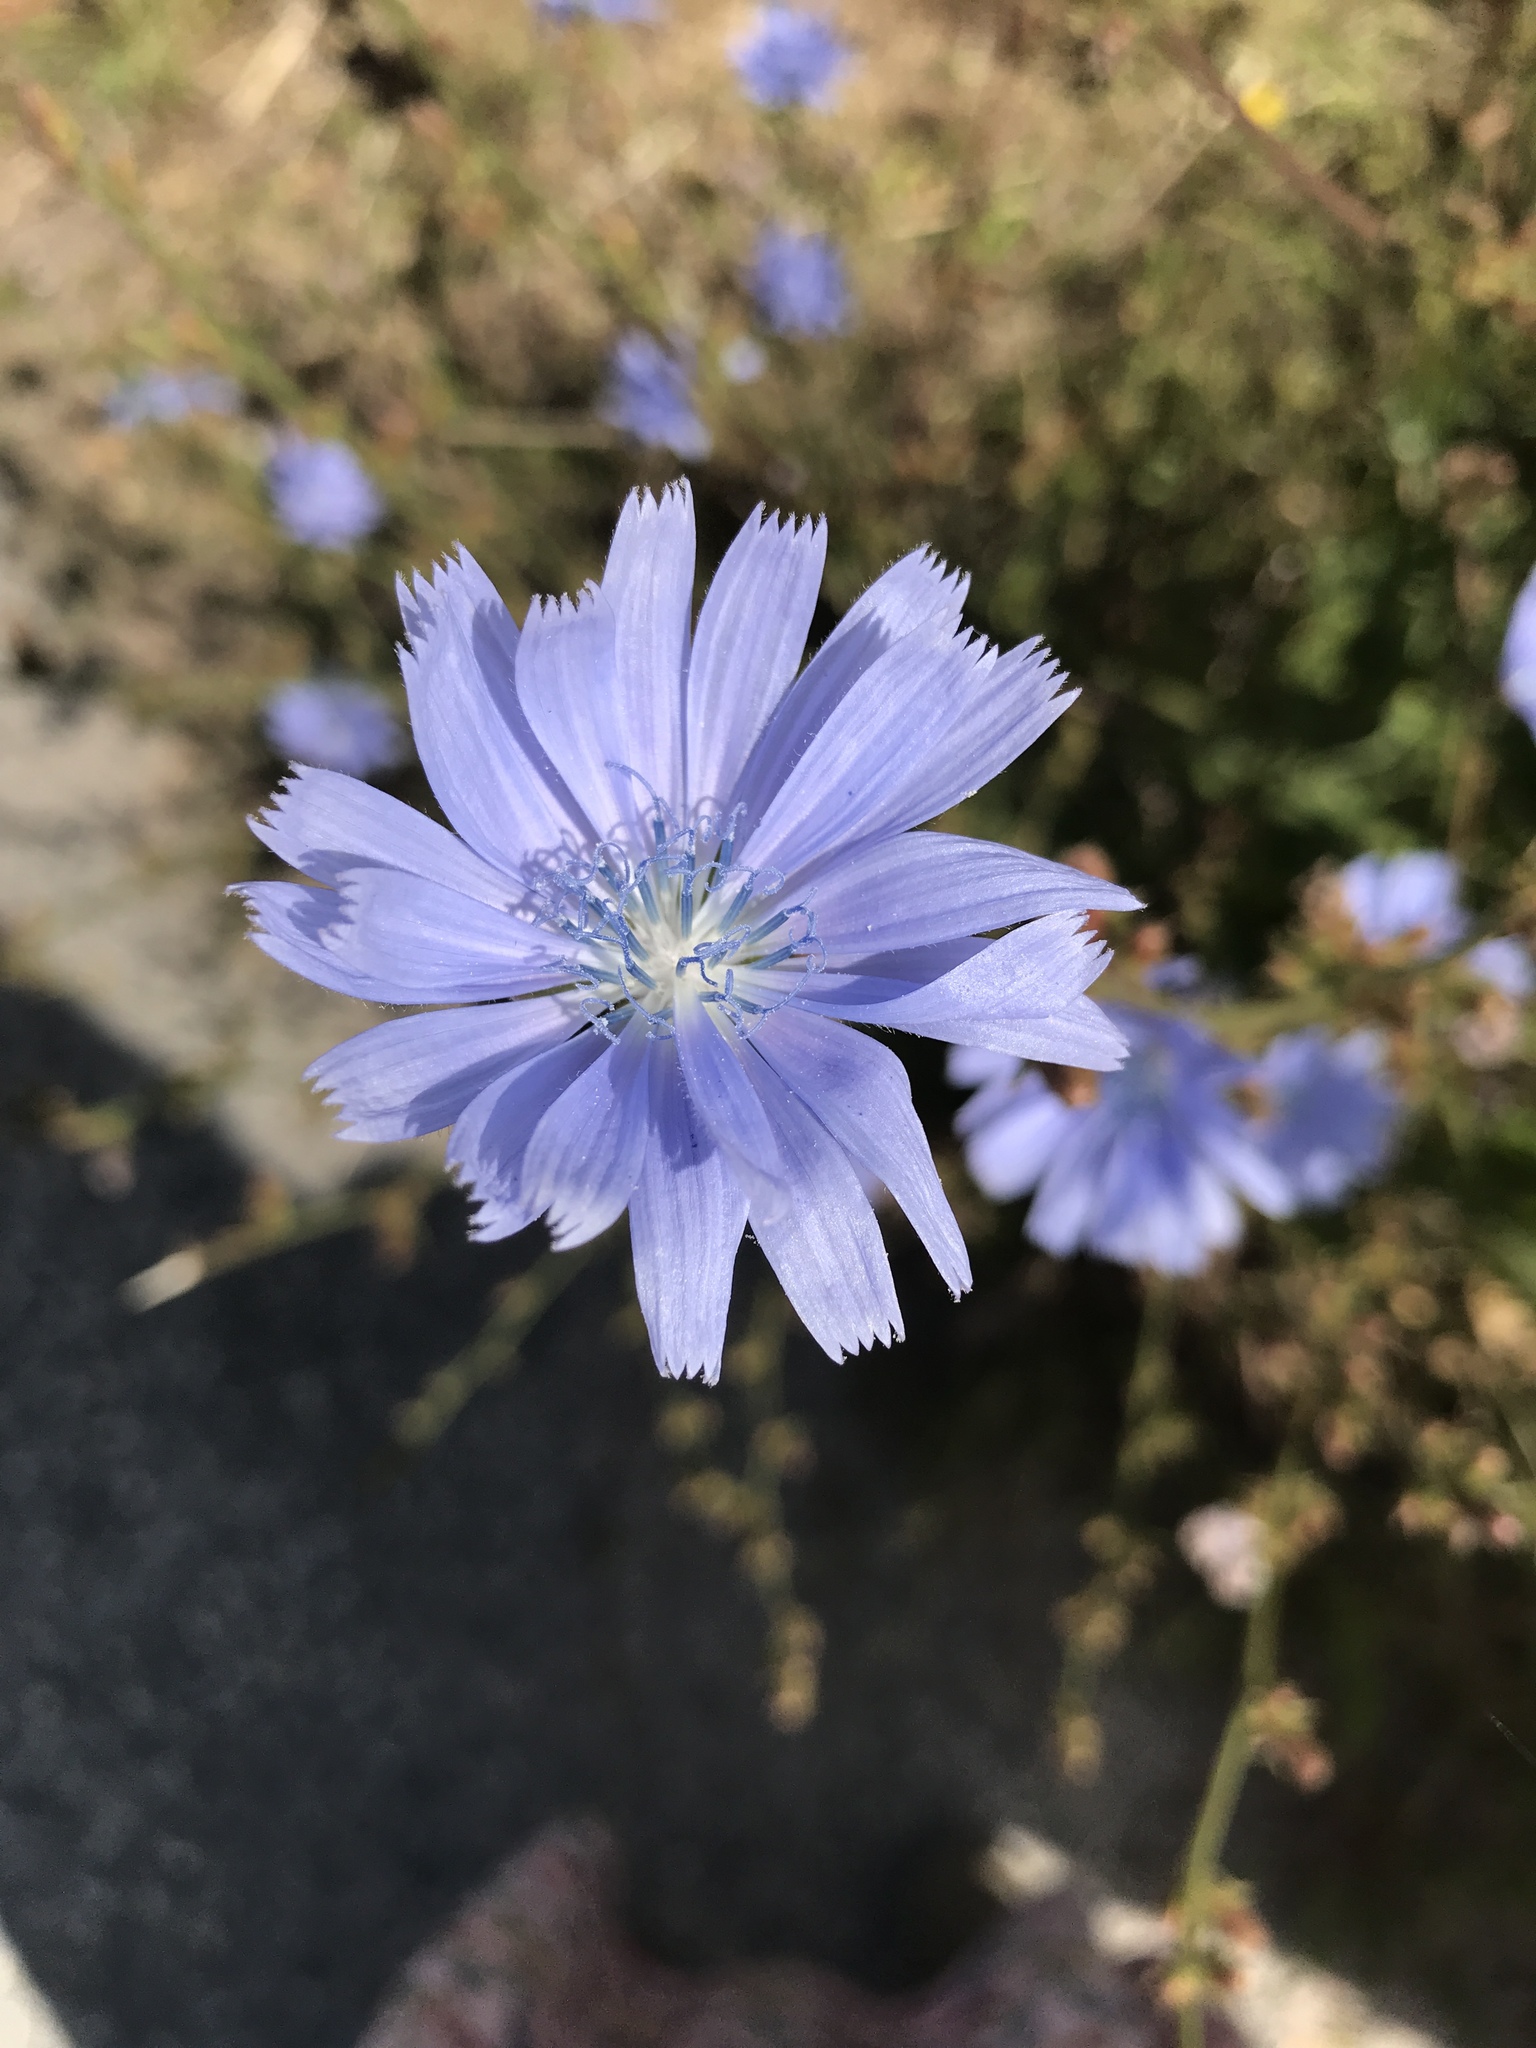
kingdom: Plantae
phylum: Tracheophyta
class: Magnoliopsida
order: Asterales
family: Asteraceae
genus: Cichorium
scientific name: Cichorium intybus
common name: Chicory
